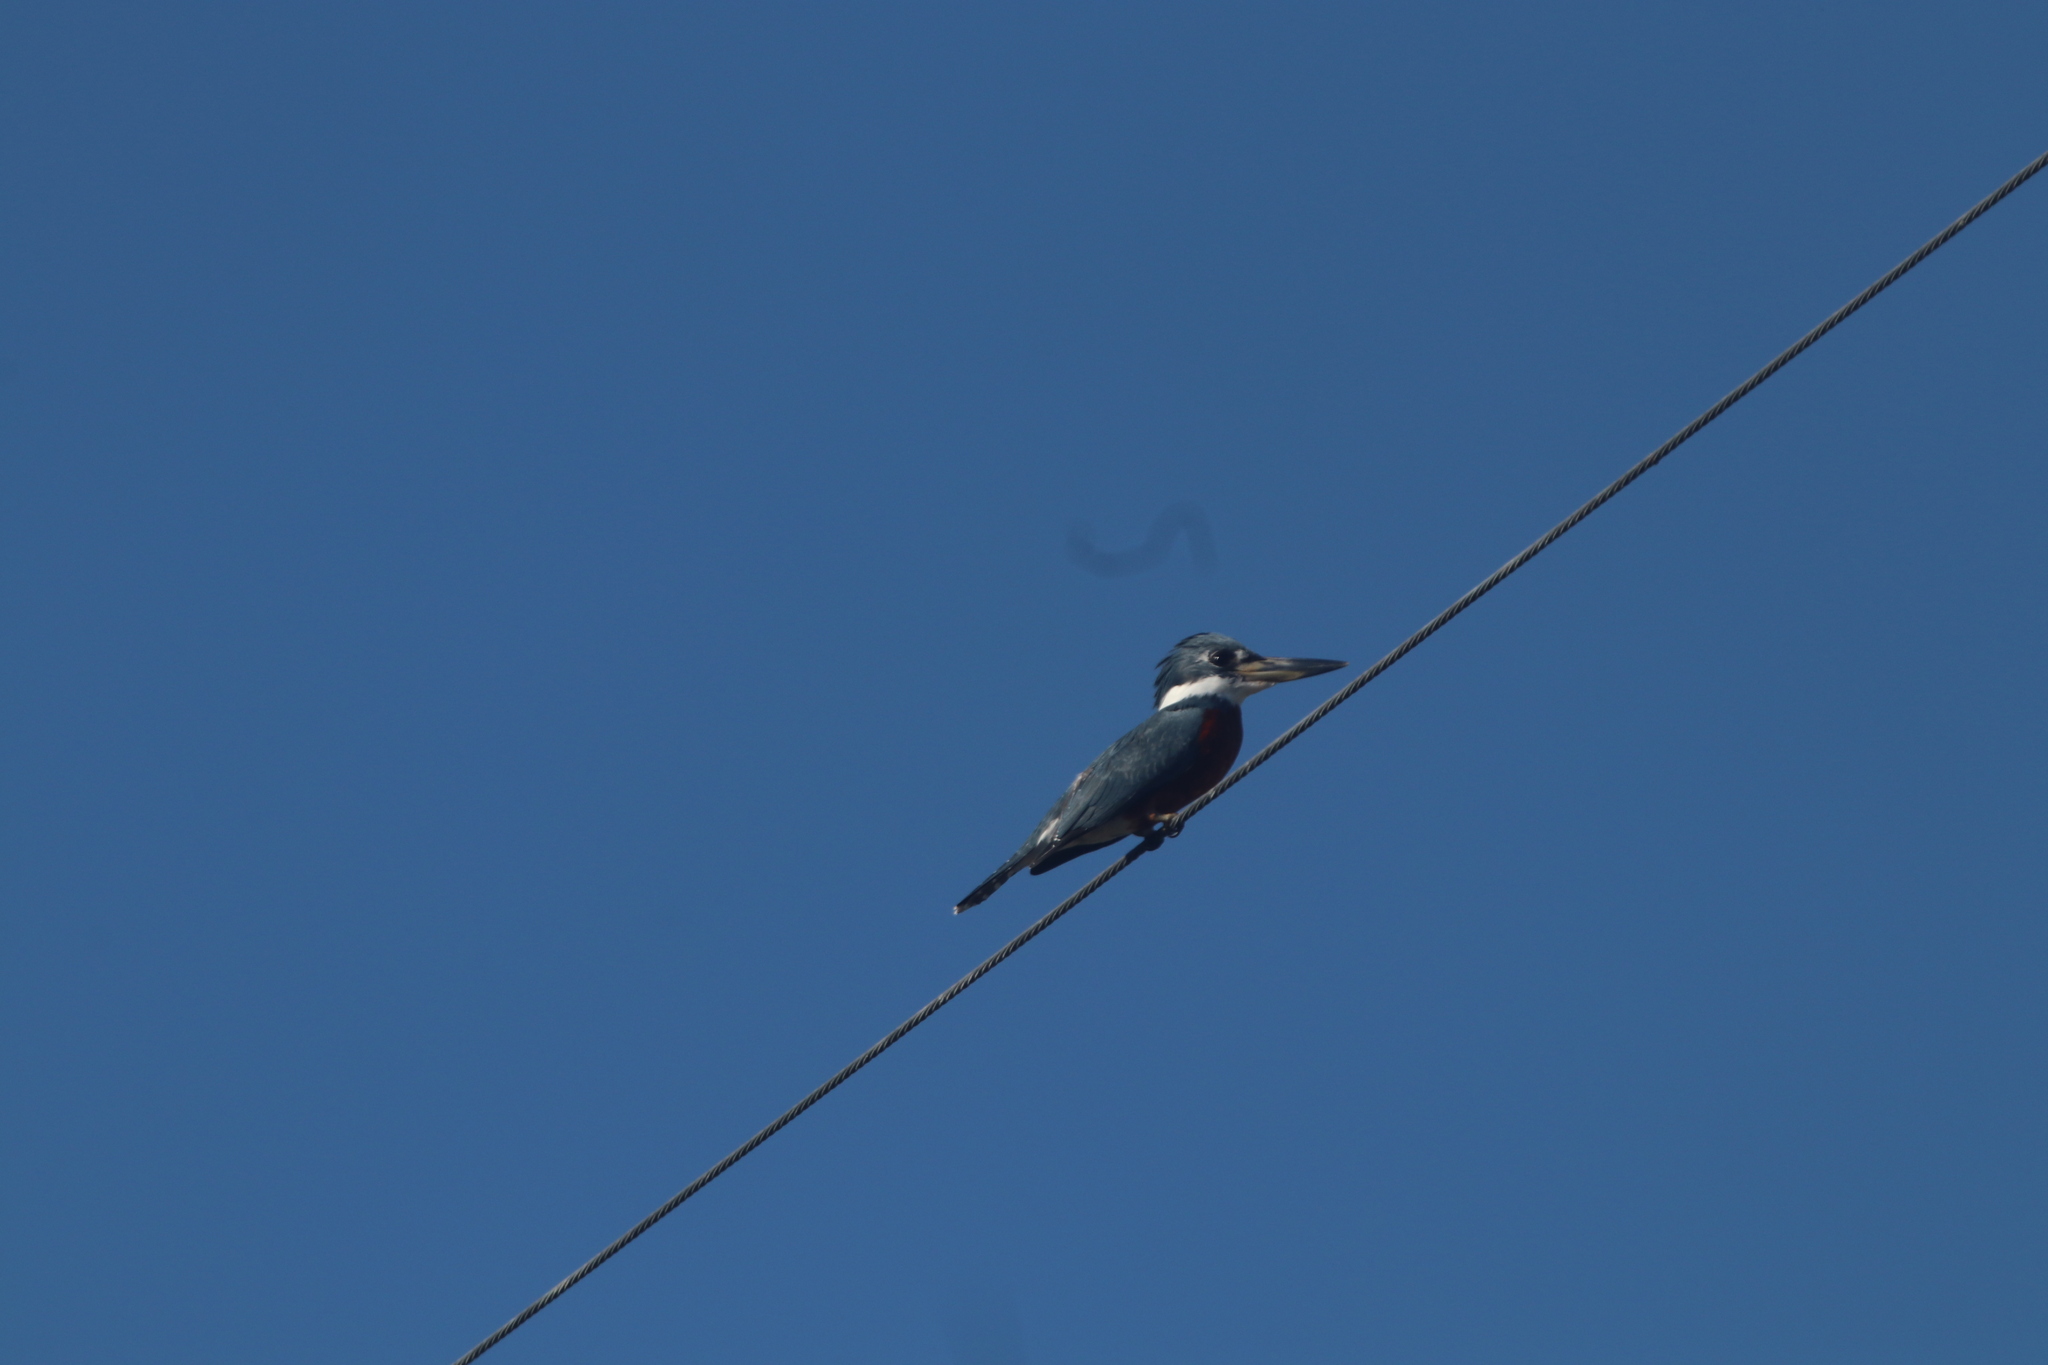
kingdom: Animalia
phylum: Chordata
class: Aves
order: Coraciiformes
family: Alcedinidae
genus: Megaceryle
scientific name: Megaceryle torquata
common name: Ringed kingfisher
